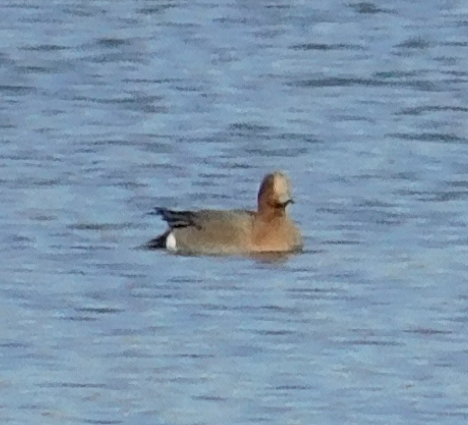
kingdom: Animalia
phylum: Chordata
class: Aves
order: Anseriformes
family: Anatidae
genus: Mareca
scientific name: Mareca penelope
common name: Eurasian wigeon
